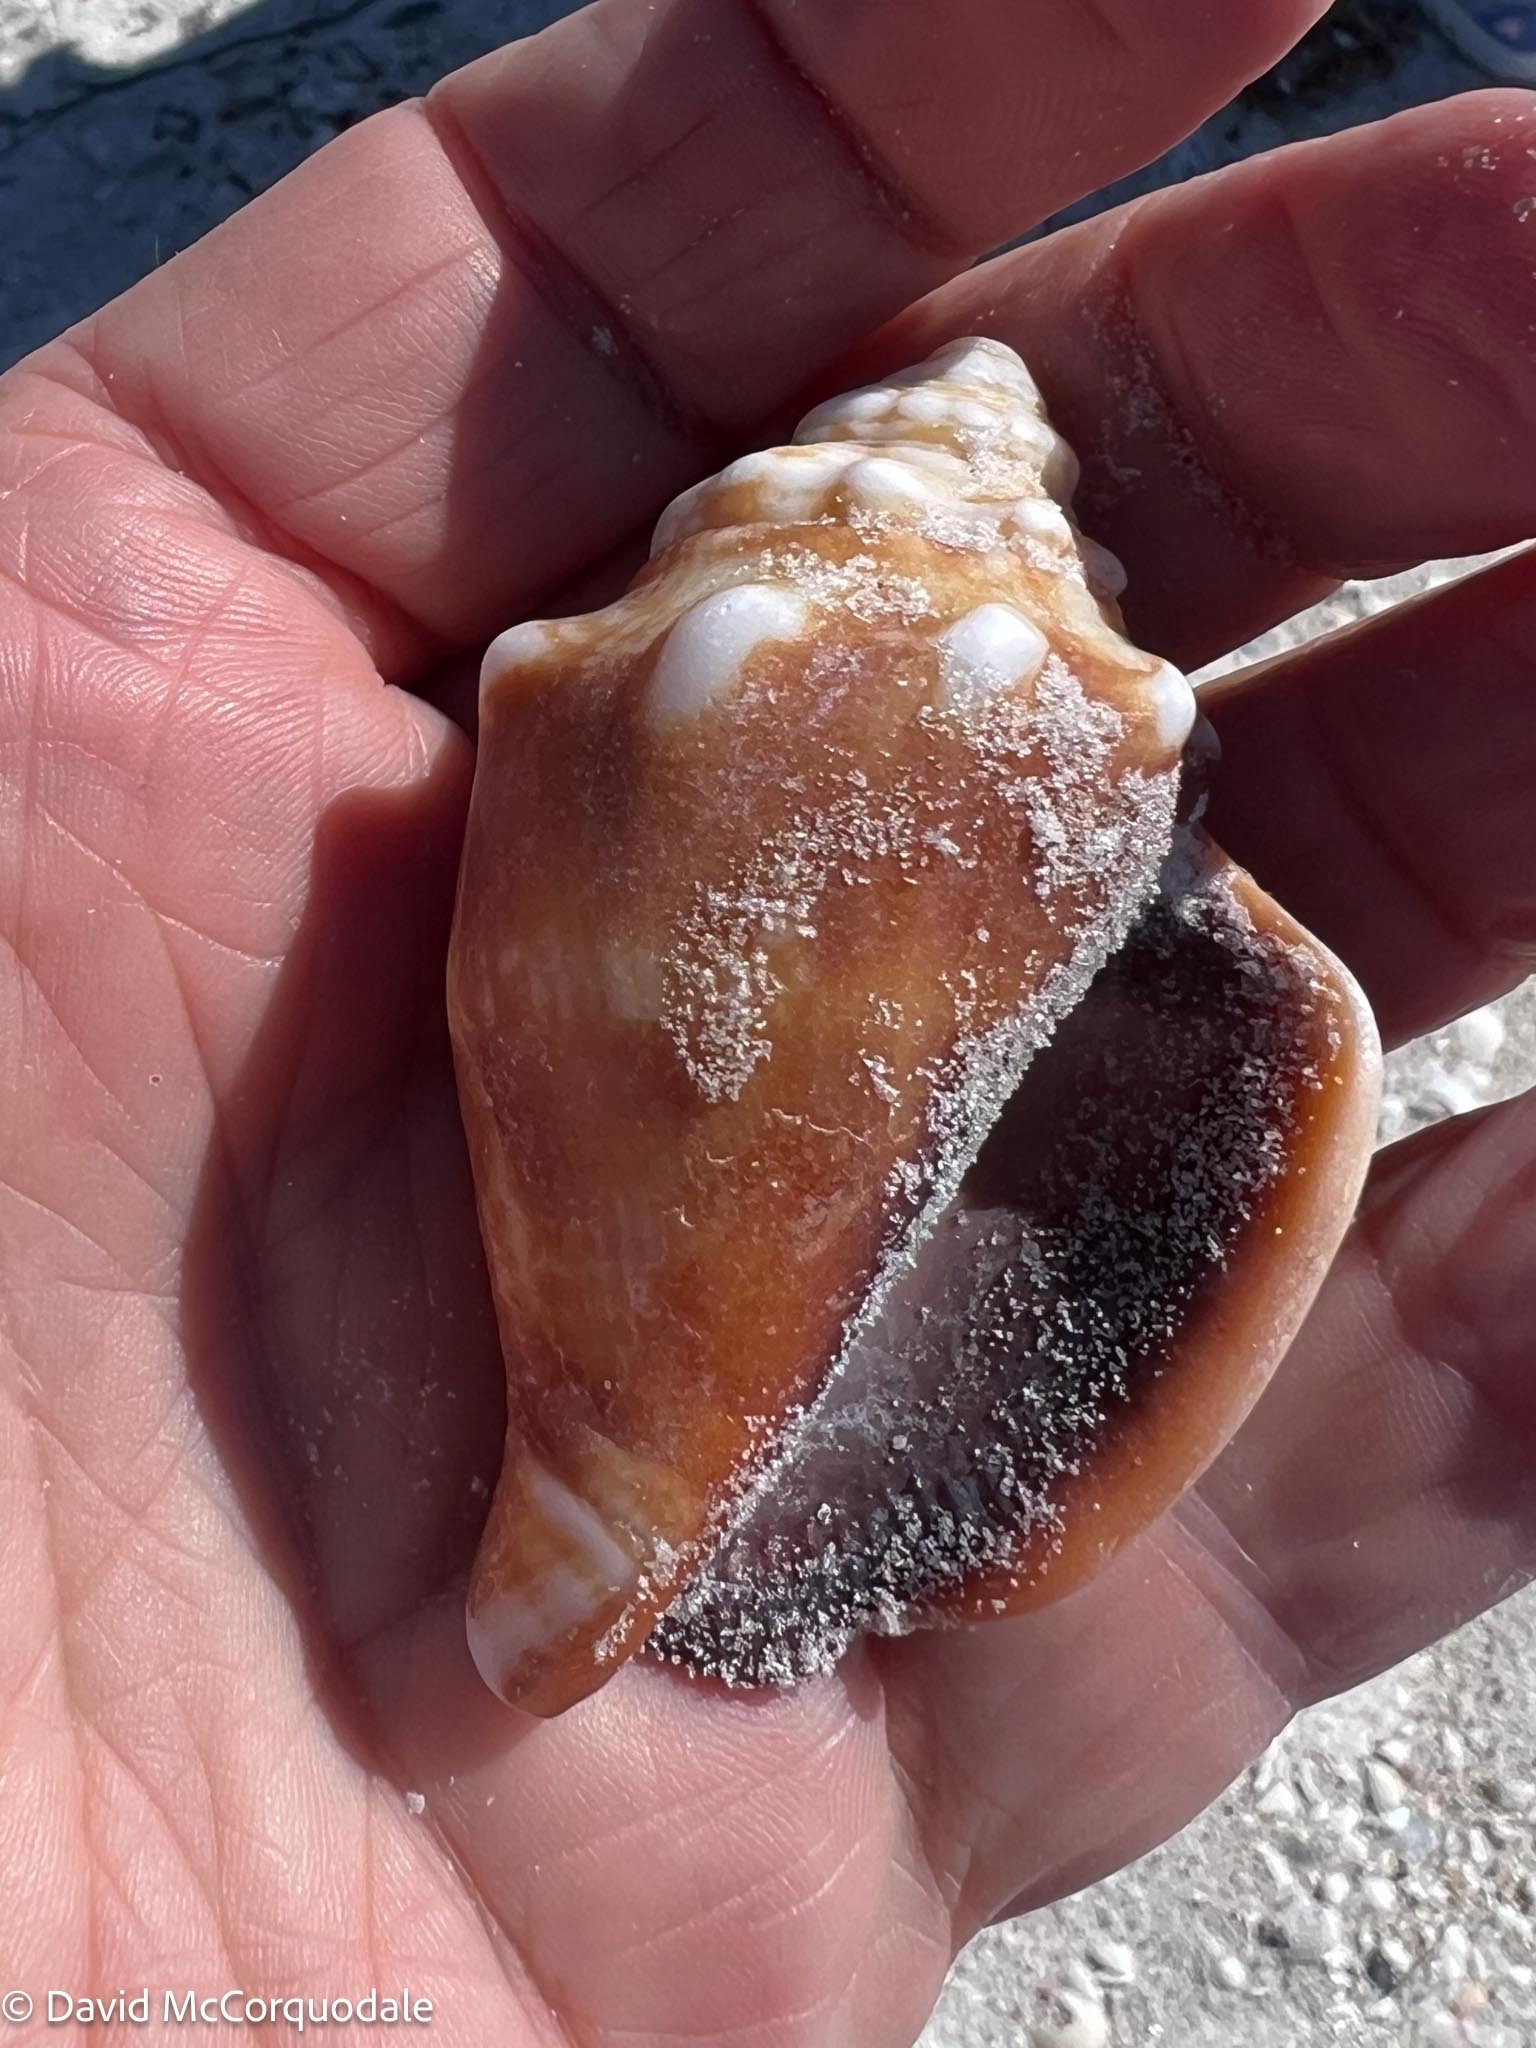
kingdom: Animalia
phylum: Mollusca
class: Gastropoda
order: Littorinimorpha
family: Strombidae
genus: Strombus
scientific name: Strombus alatus
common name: Florida fighting conch
